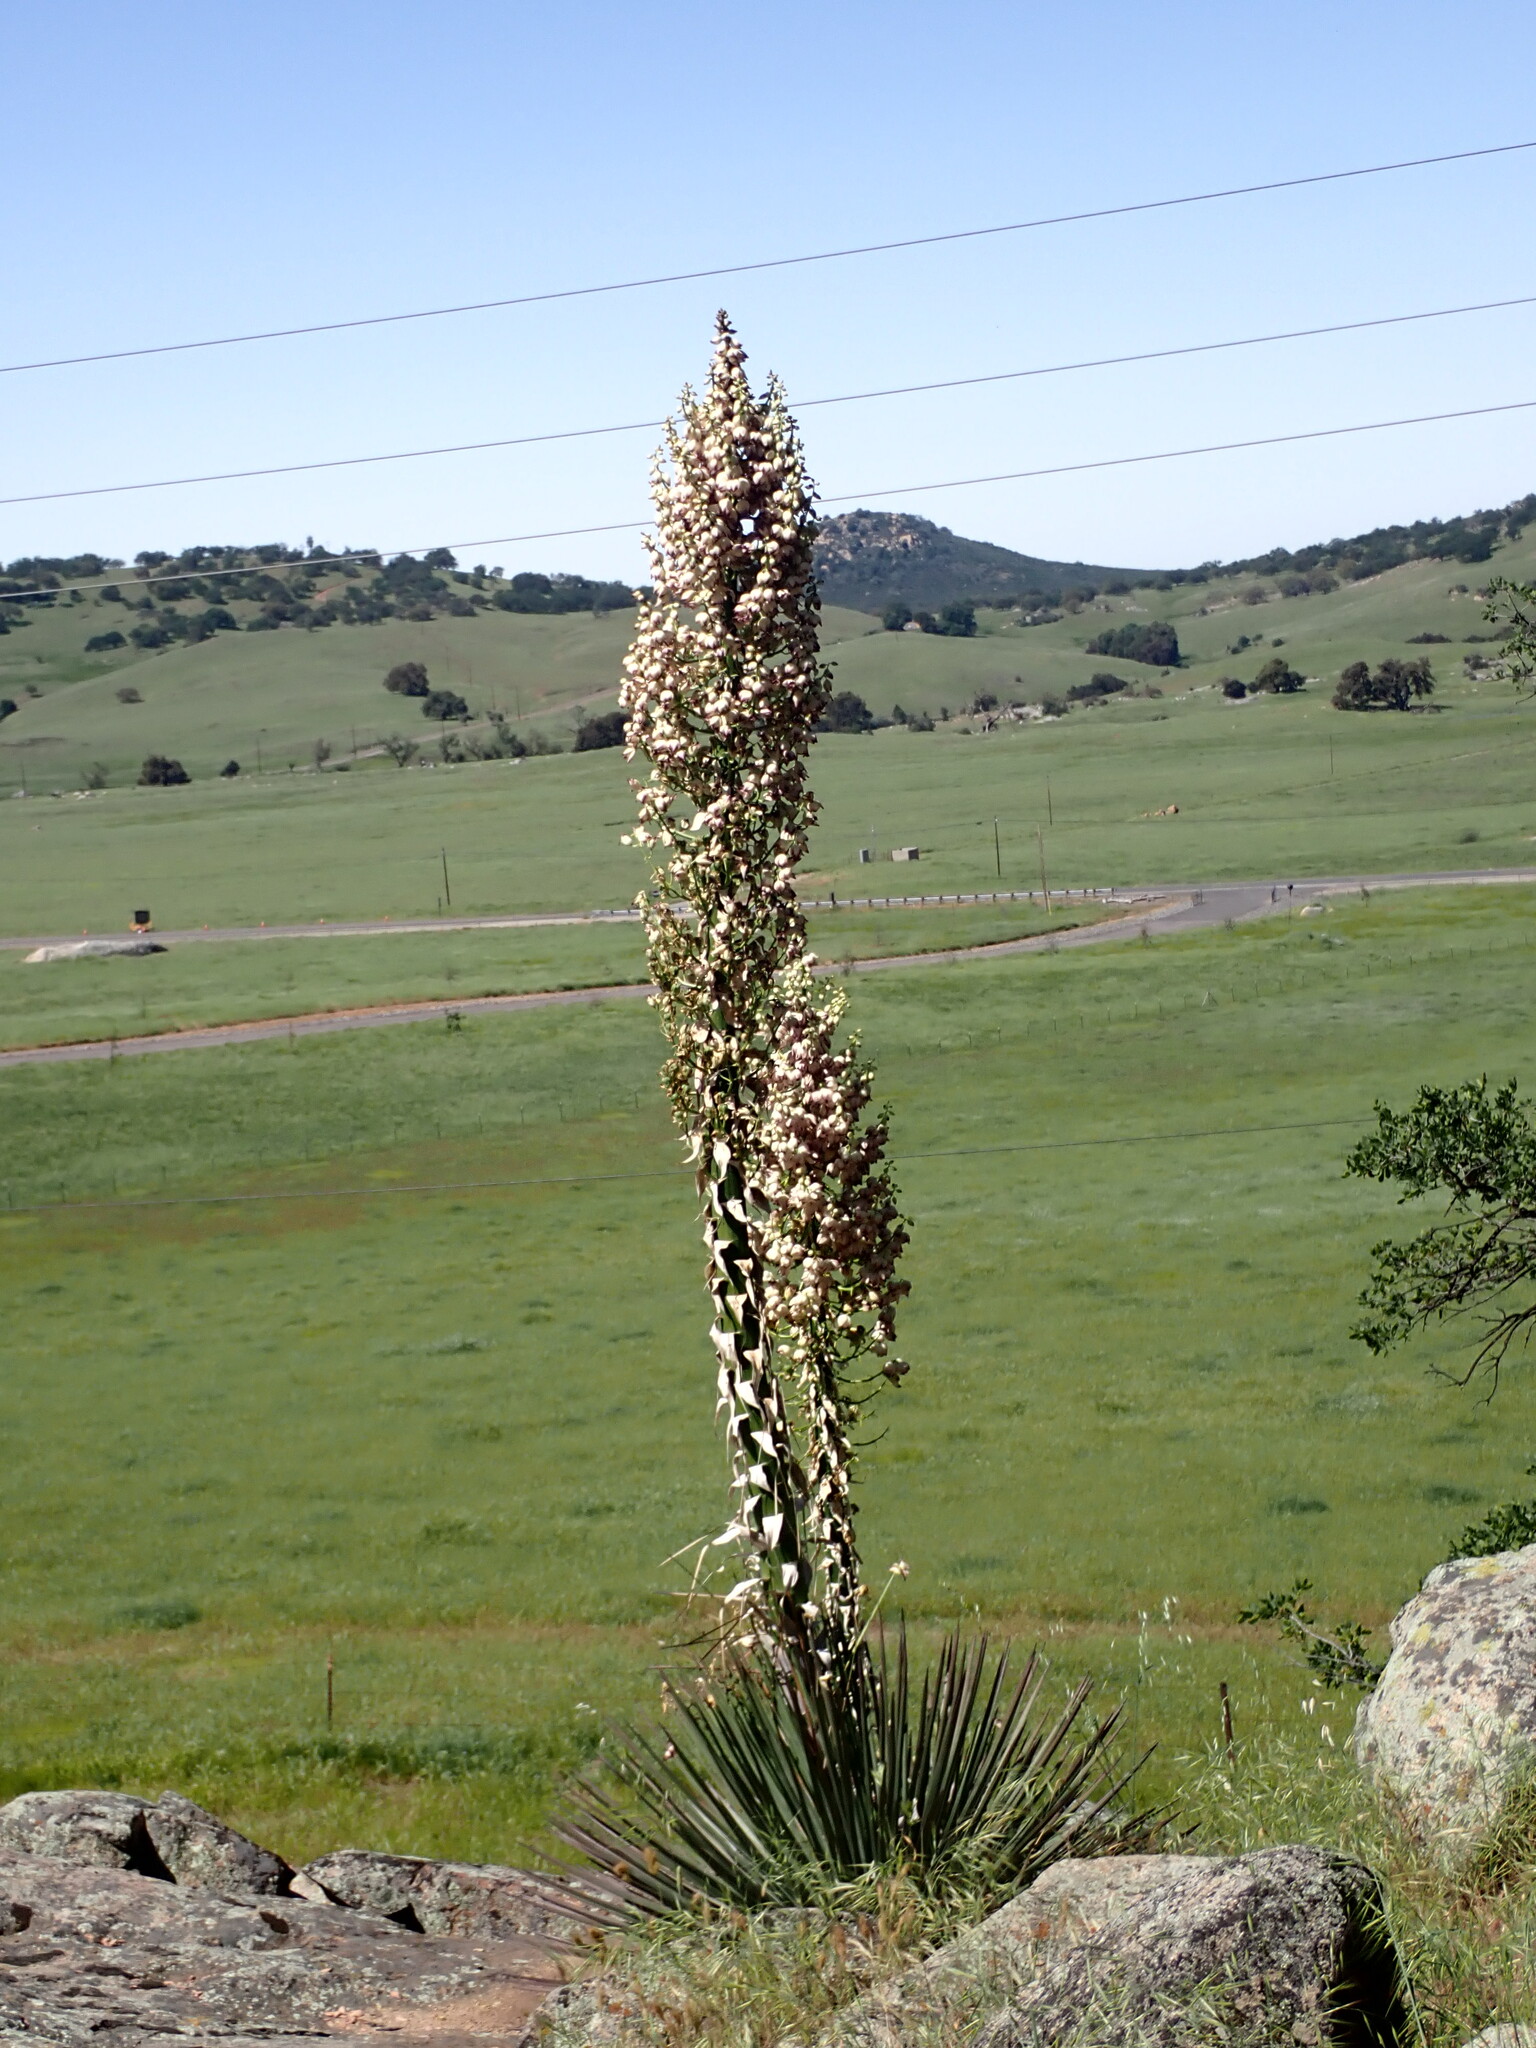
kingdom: Plantae
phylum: Tracheophyta
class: Liliopsida
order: Asparagales
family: Asparagaceae
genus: Hesperoyucca
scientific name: Hesperoyucca whipplei
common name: Our lord's-candle
